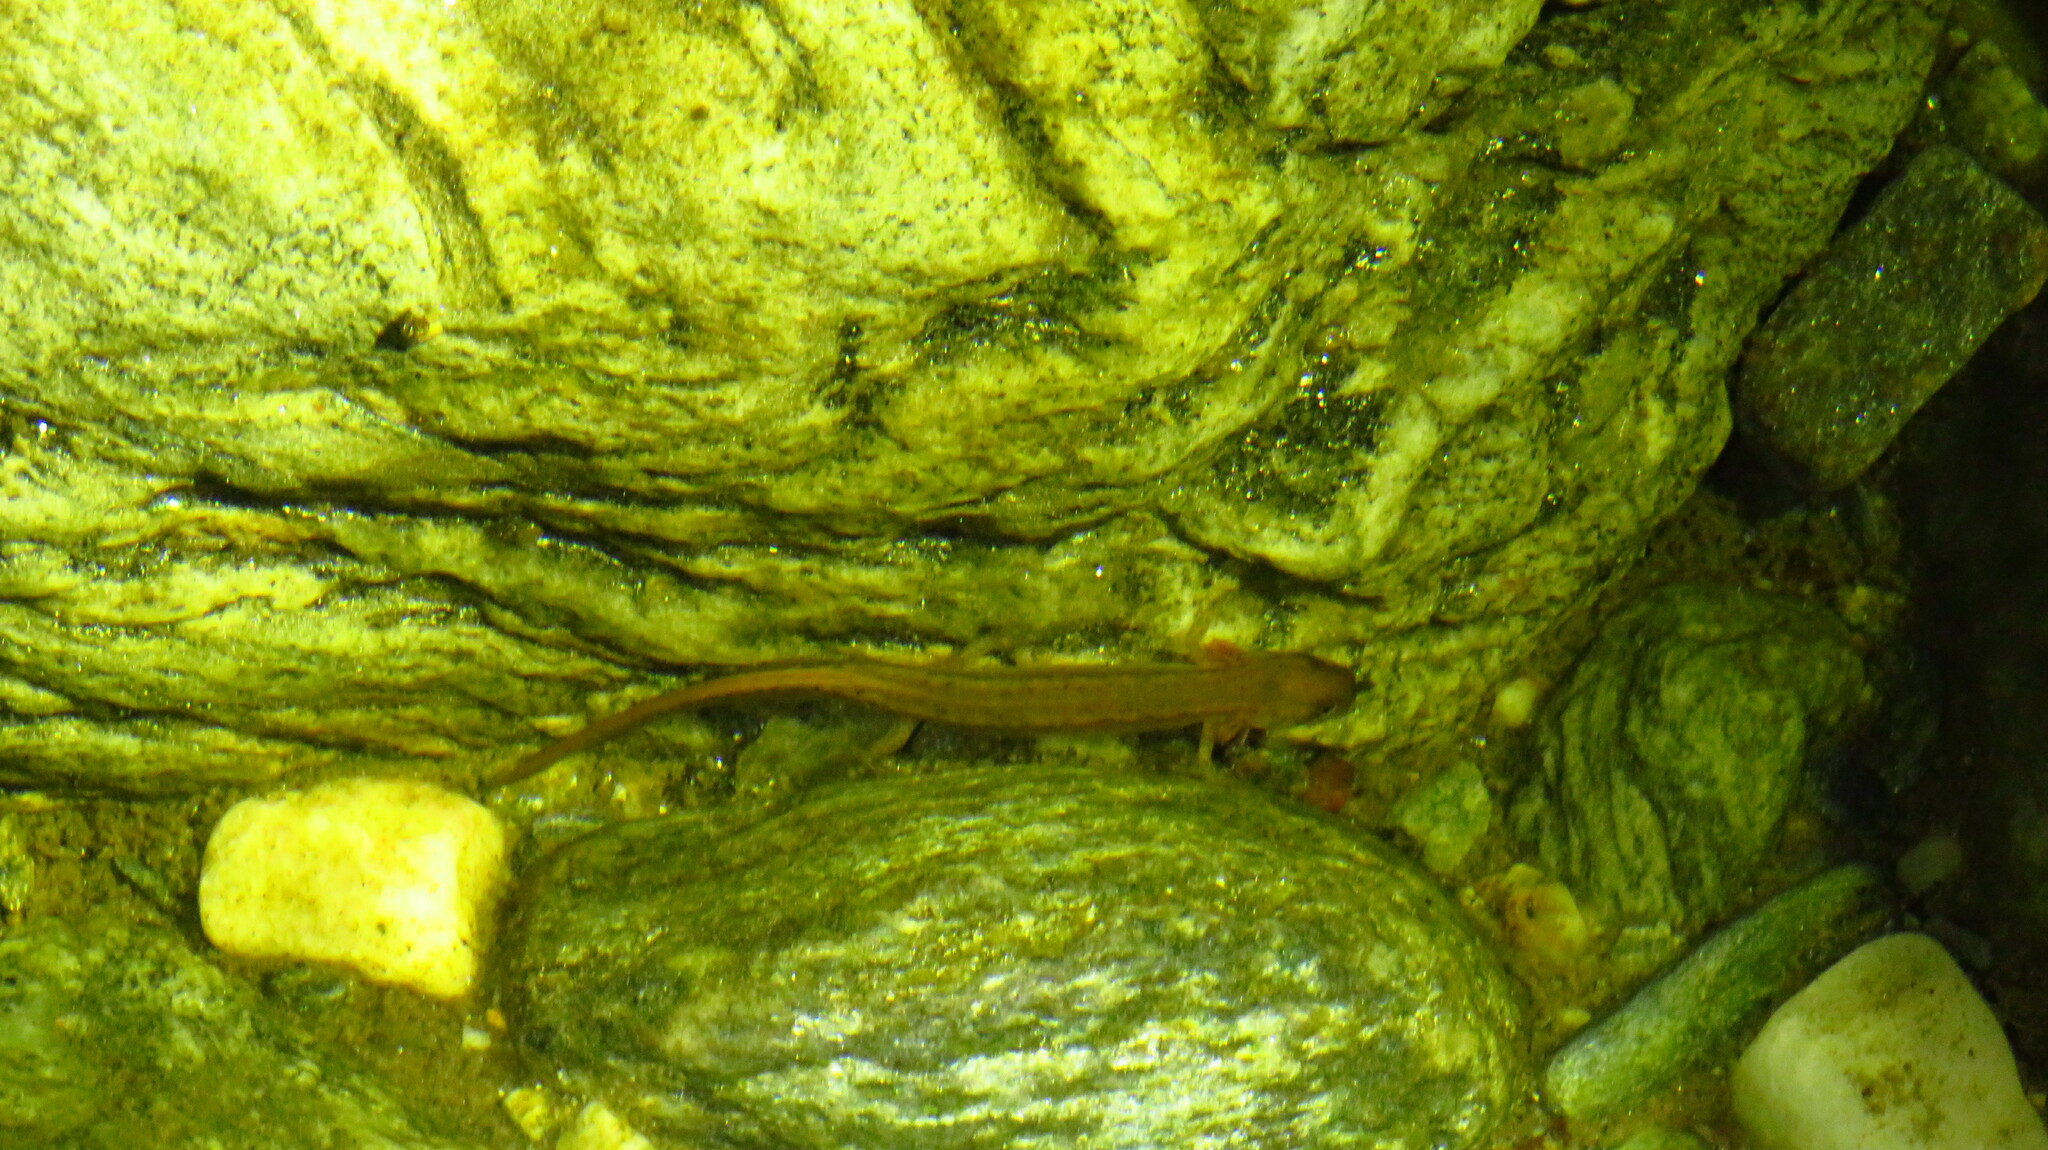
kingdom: Animalia
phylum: Chordata
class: Amphibia
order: Caudata
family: Plethodontidae
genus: Eurycea
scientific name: Eurycea bislineata
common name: Northern two-lined salamander
